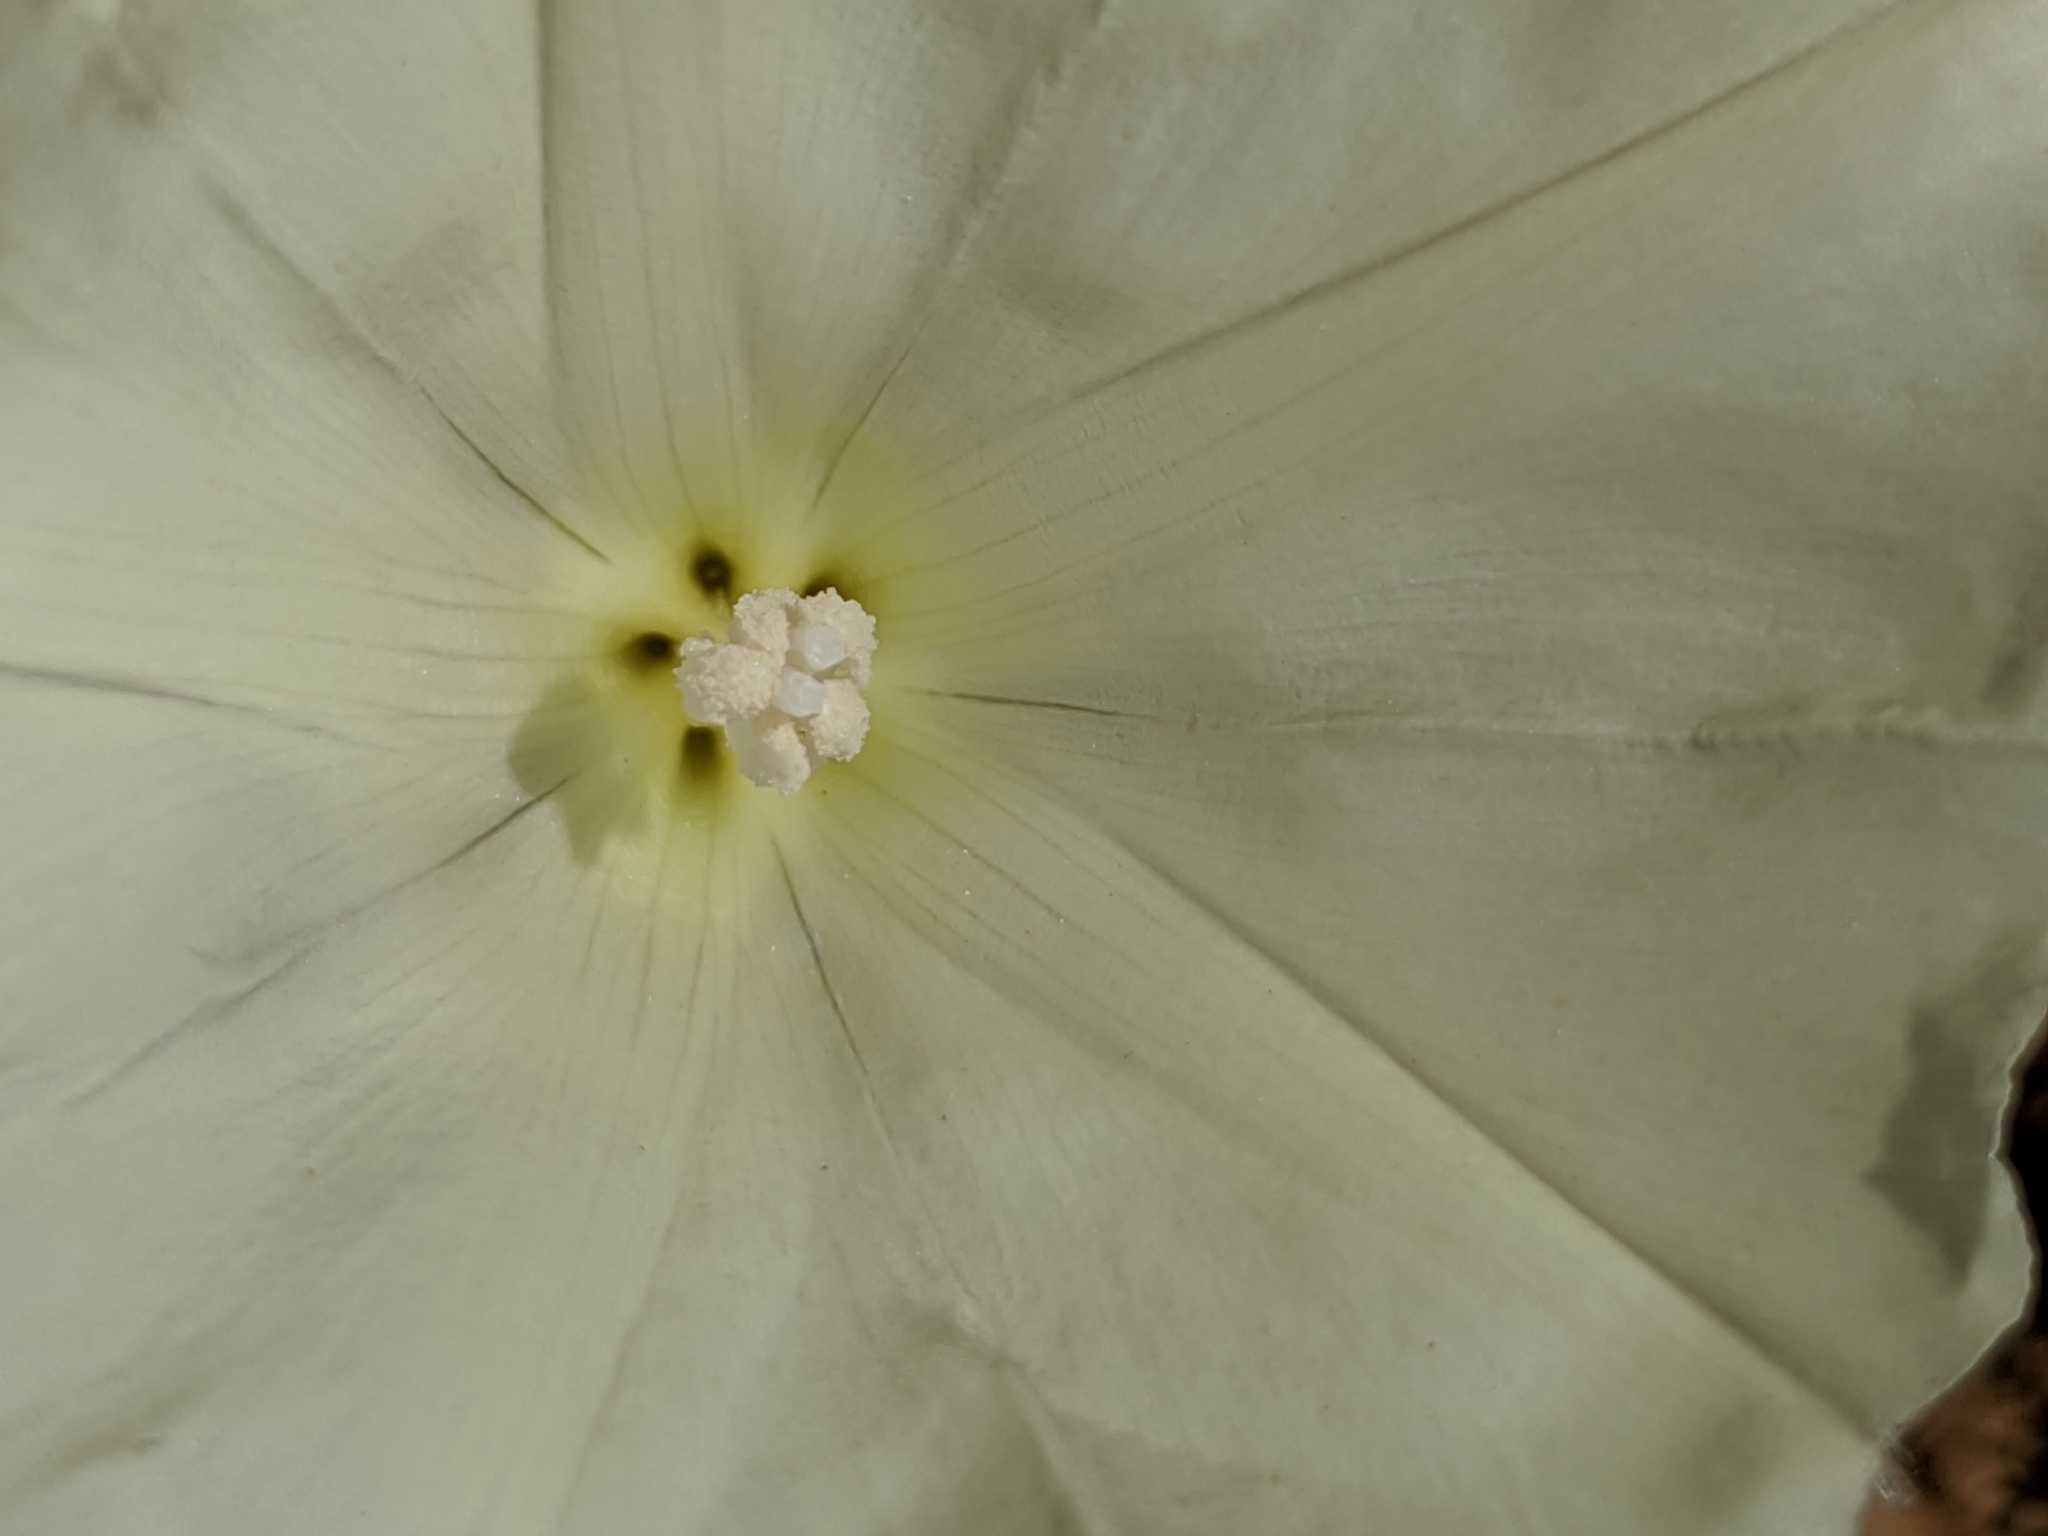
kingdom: Plantae
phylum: Tracheophyta
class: Magnoliopsida
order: Solanales
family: Convolvulaceae
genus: Calystegia
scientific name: Calystegia malacophylla
